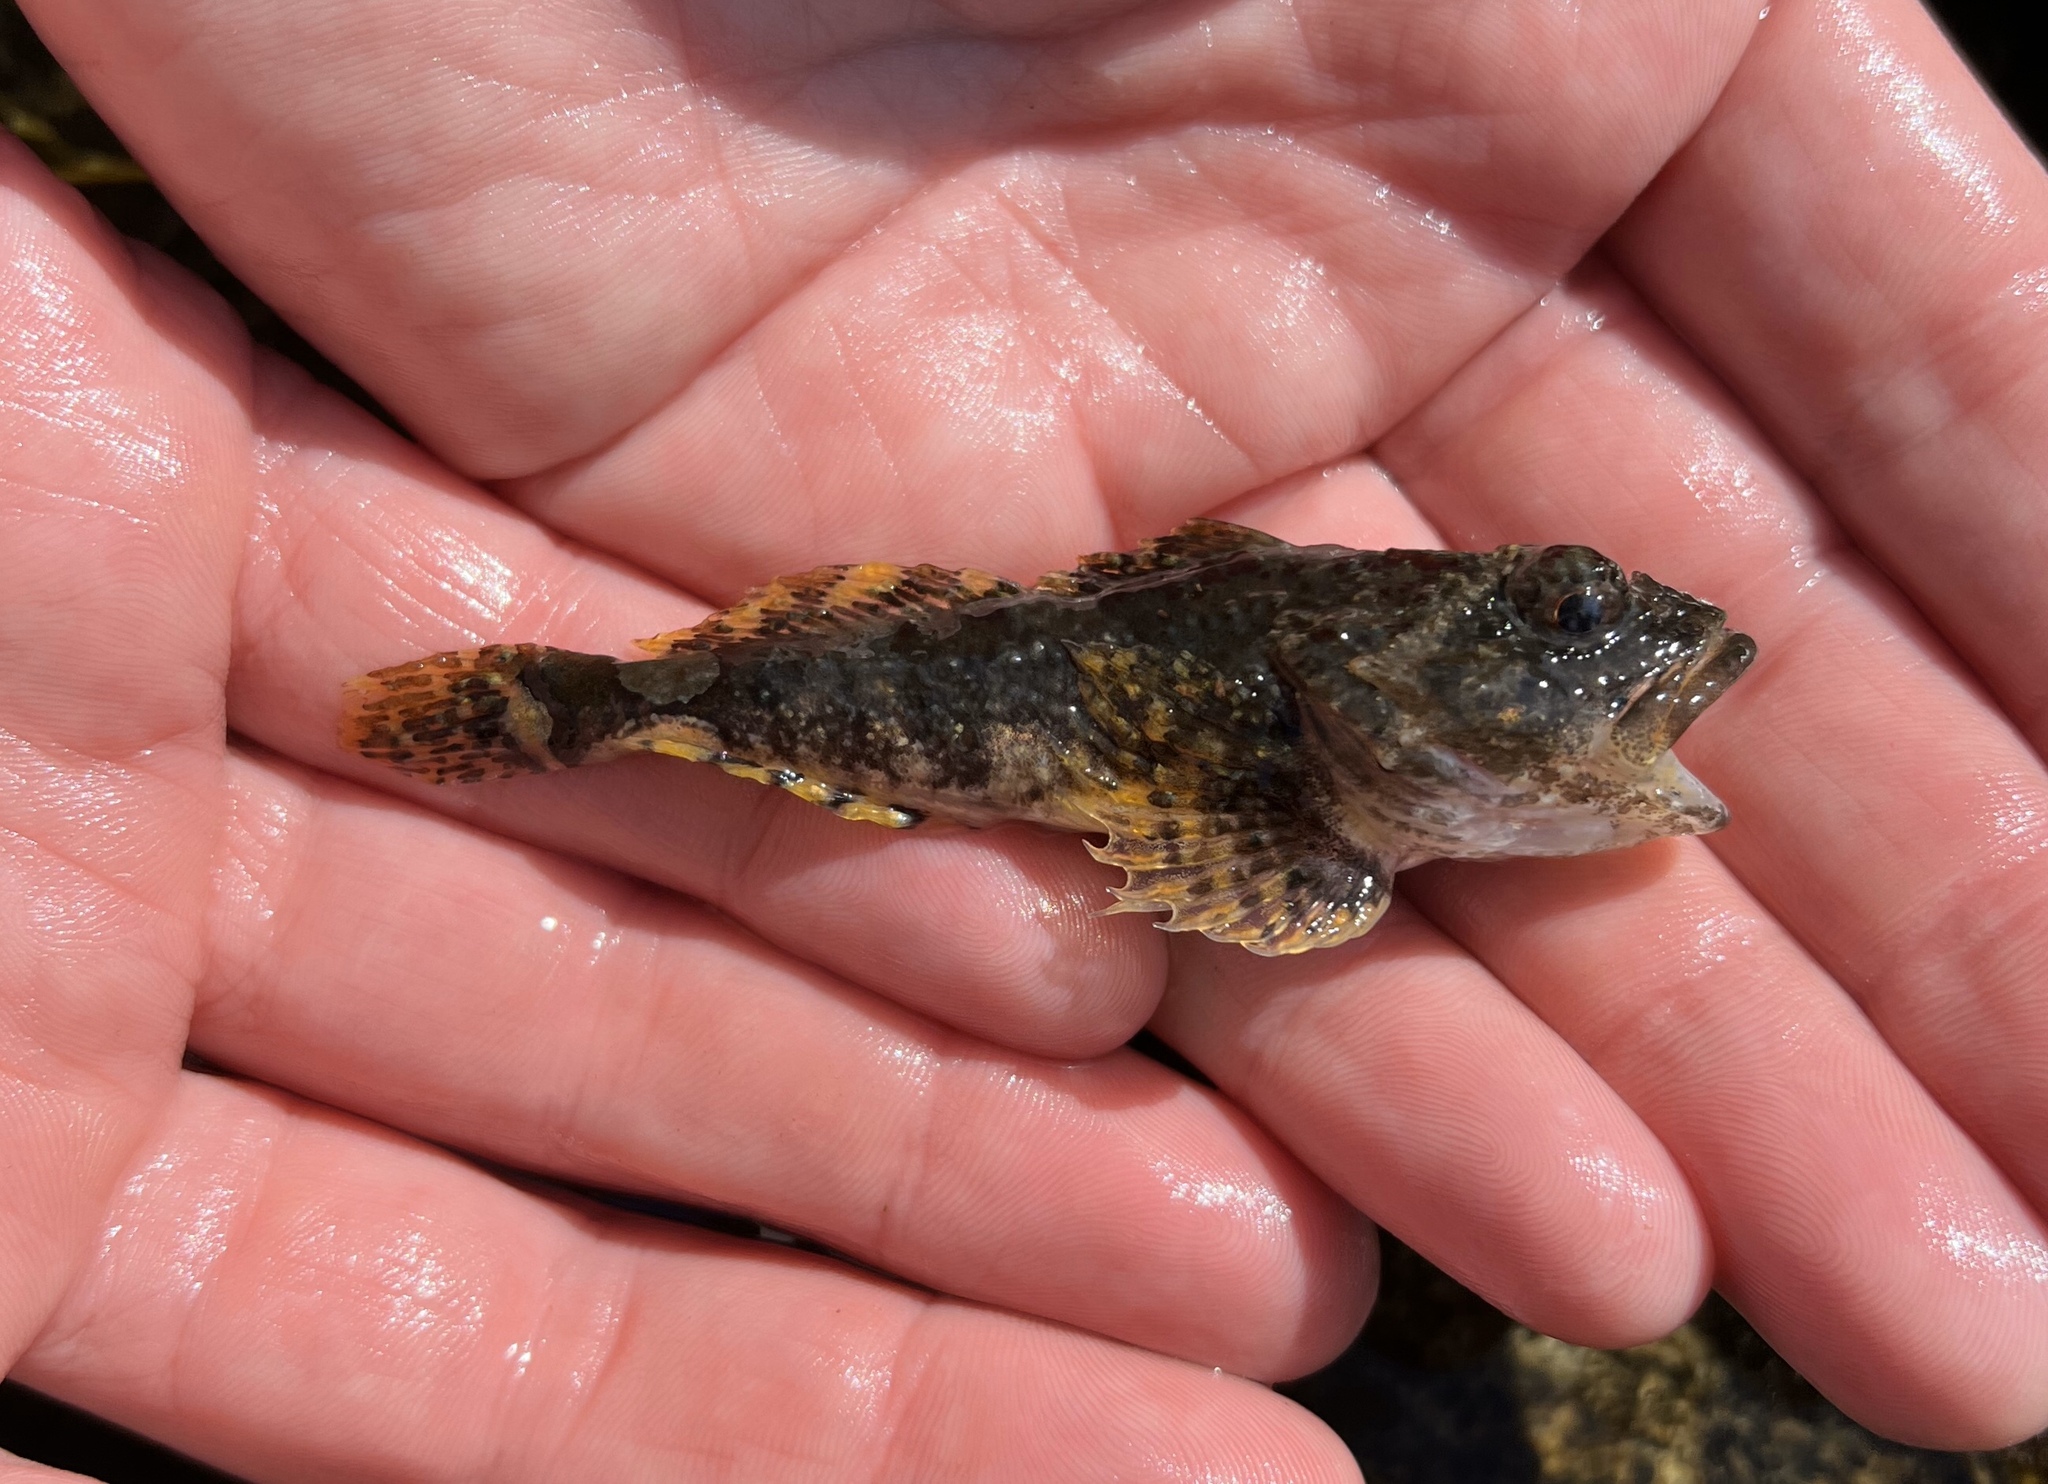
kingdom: Animalia
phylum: Chordata
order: Scorpaeniformes
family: Cottidae
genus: Myoxocephalus
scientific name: Myoxocephalus scorpius
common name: Shorthorn sculpin
